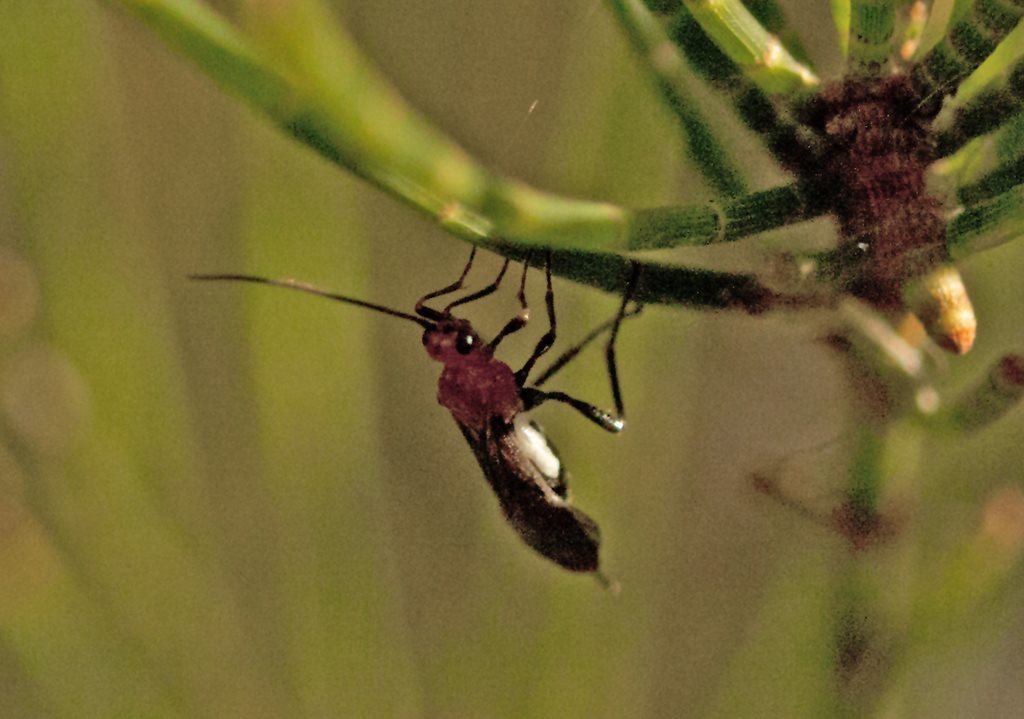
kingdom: Animalia
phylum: Arthropoda
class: Insecta
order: Hemiptera
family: Miridae
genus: Rayieria
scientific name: Rayieria basifer
